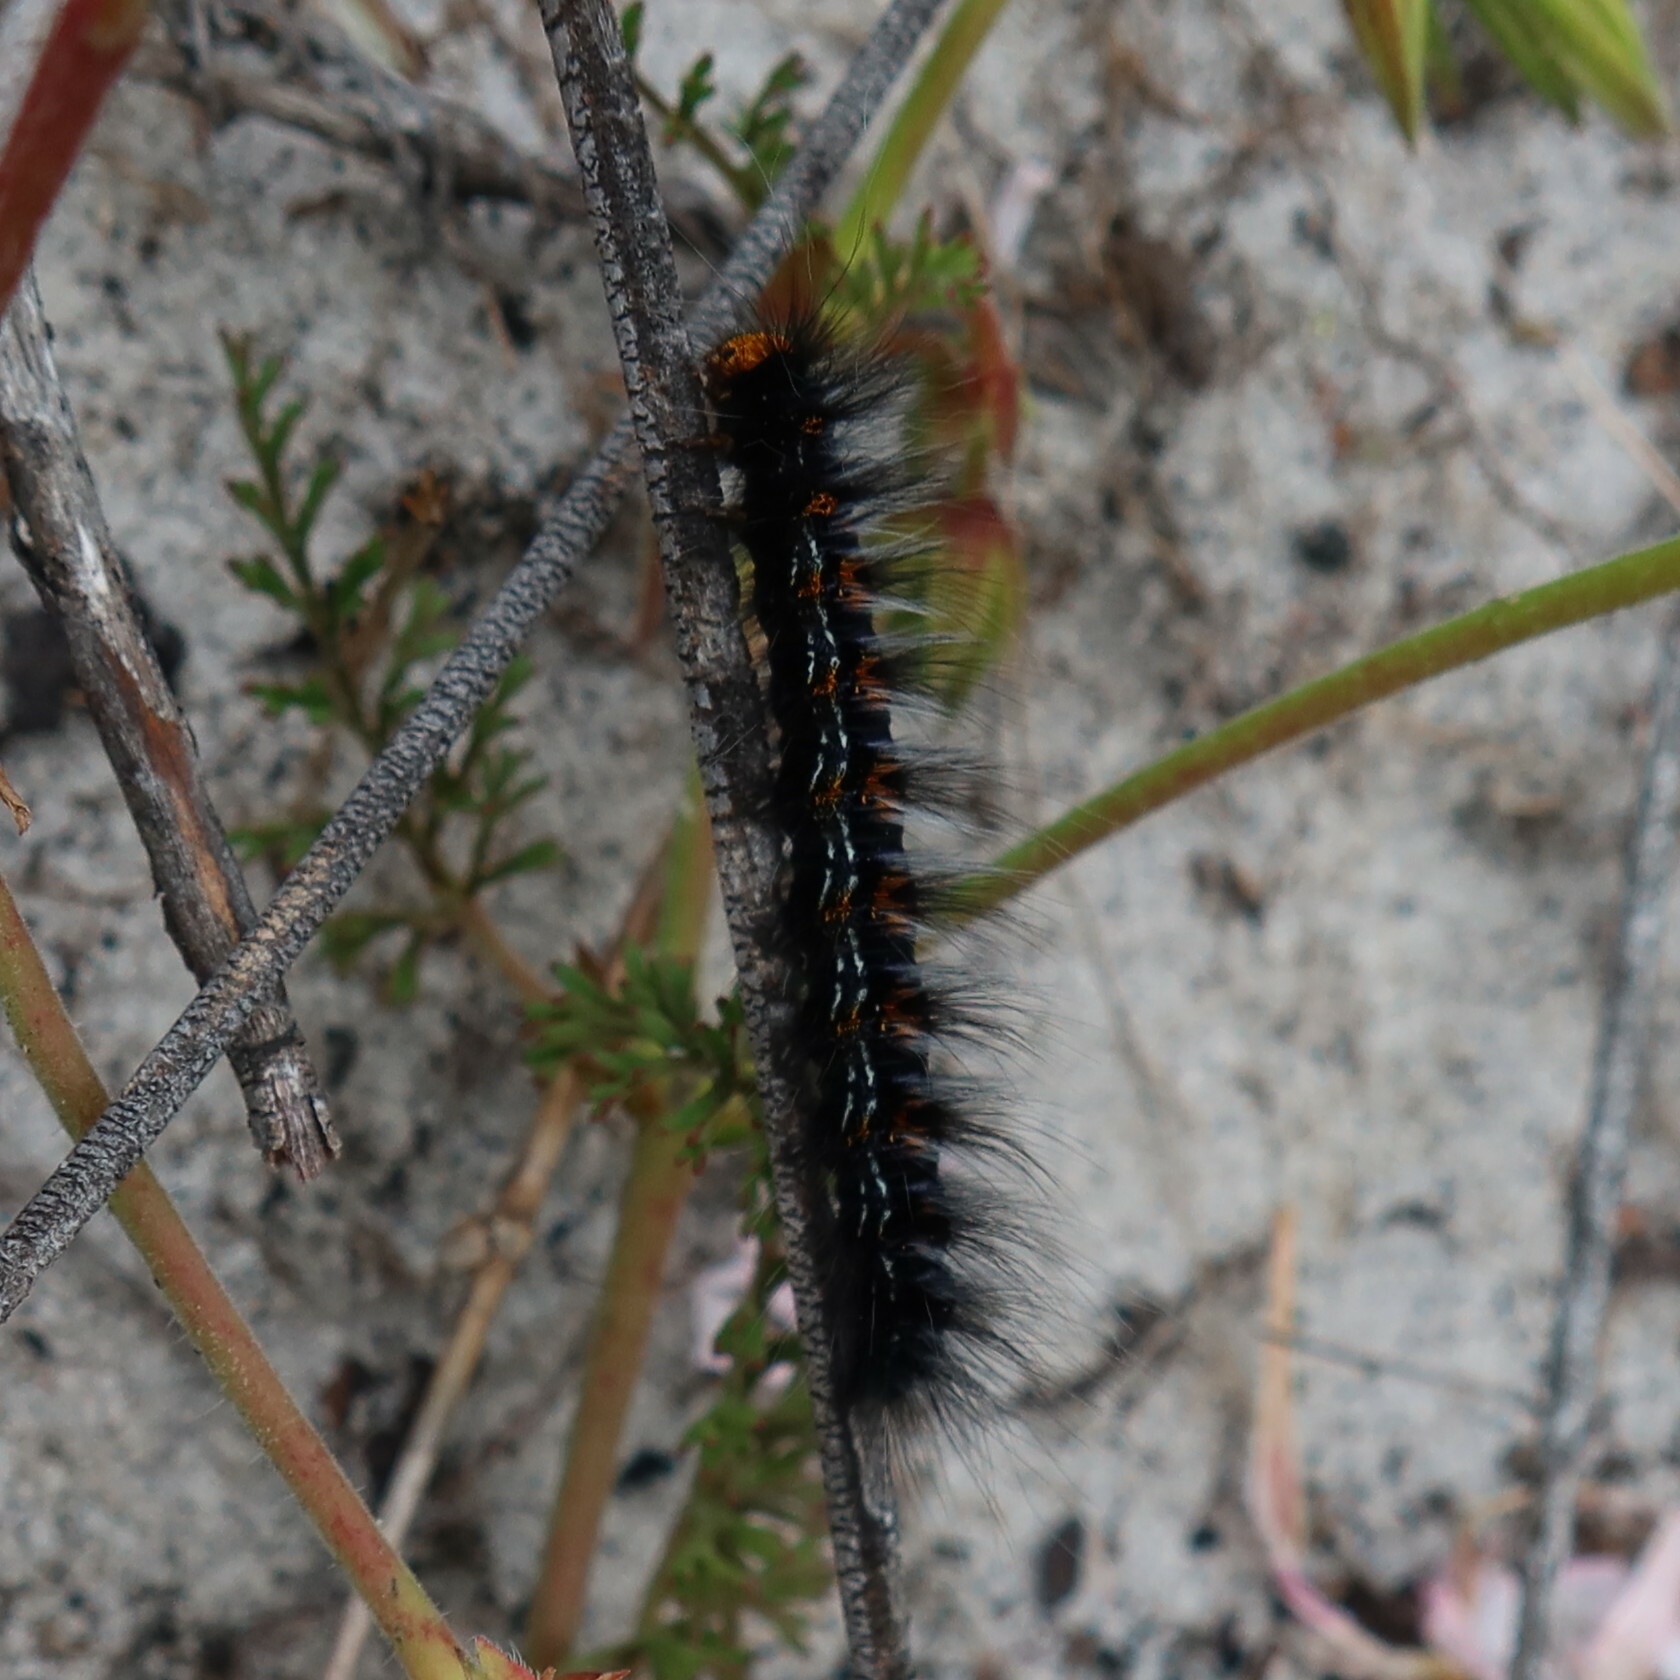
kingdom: Animalia
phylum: Arthropoda
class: Insecta
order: Lepidoptera
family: Lasiocampidae
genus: Mesocelis
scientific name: Mesocelis monticola
